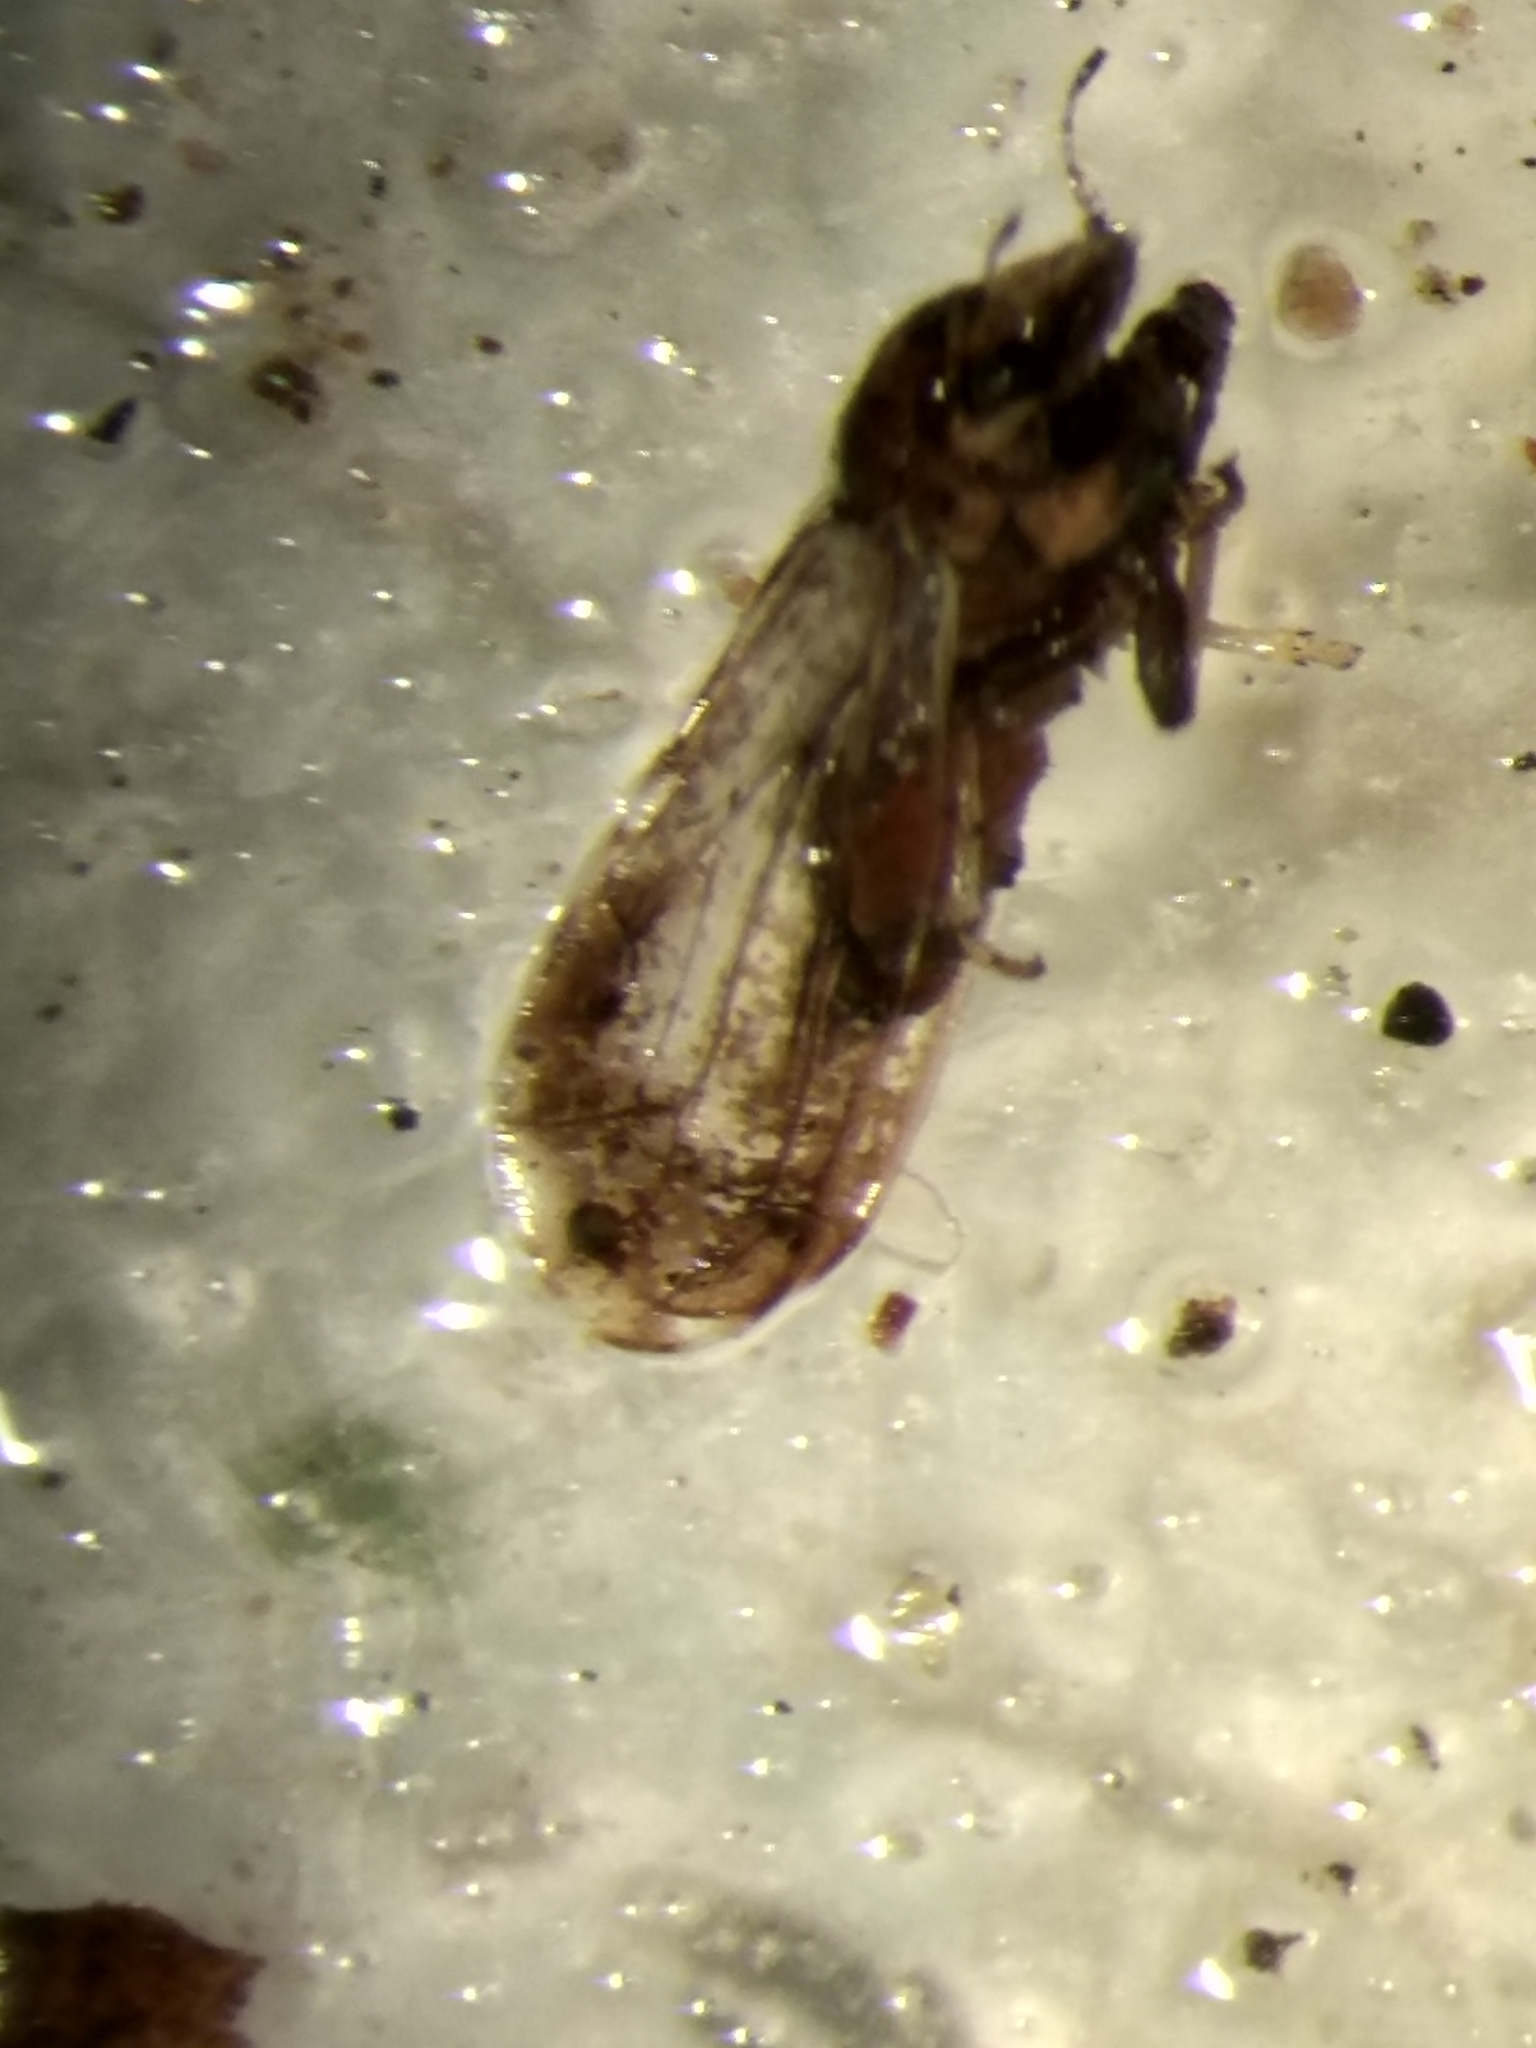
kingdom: Animalia
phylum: Arthropoda
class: Insecta
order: Hemiptera
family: Liviidae
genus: Diaphorina
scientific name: Diaphorina citri
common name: Asian citrus psyllid
